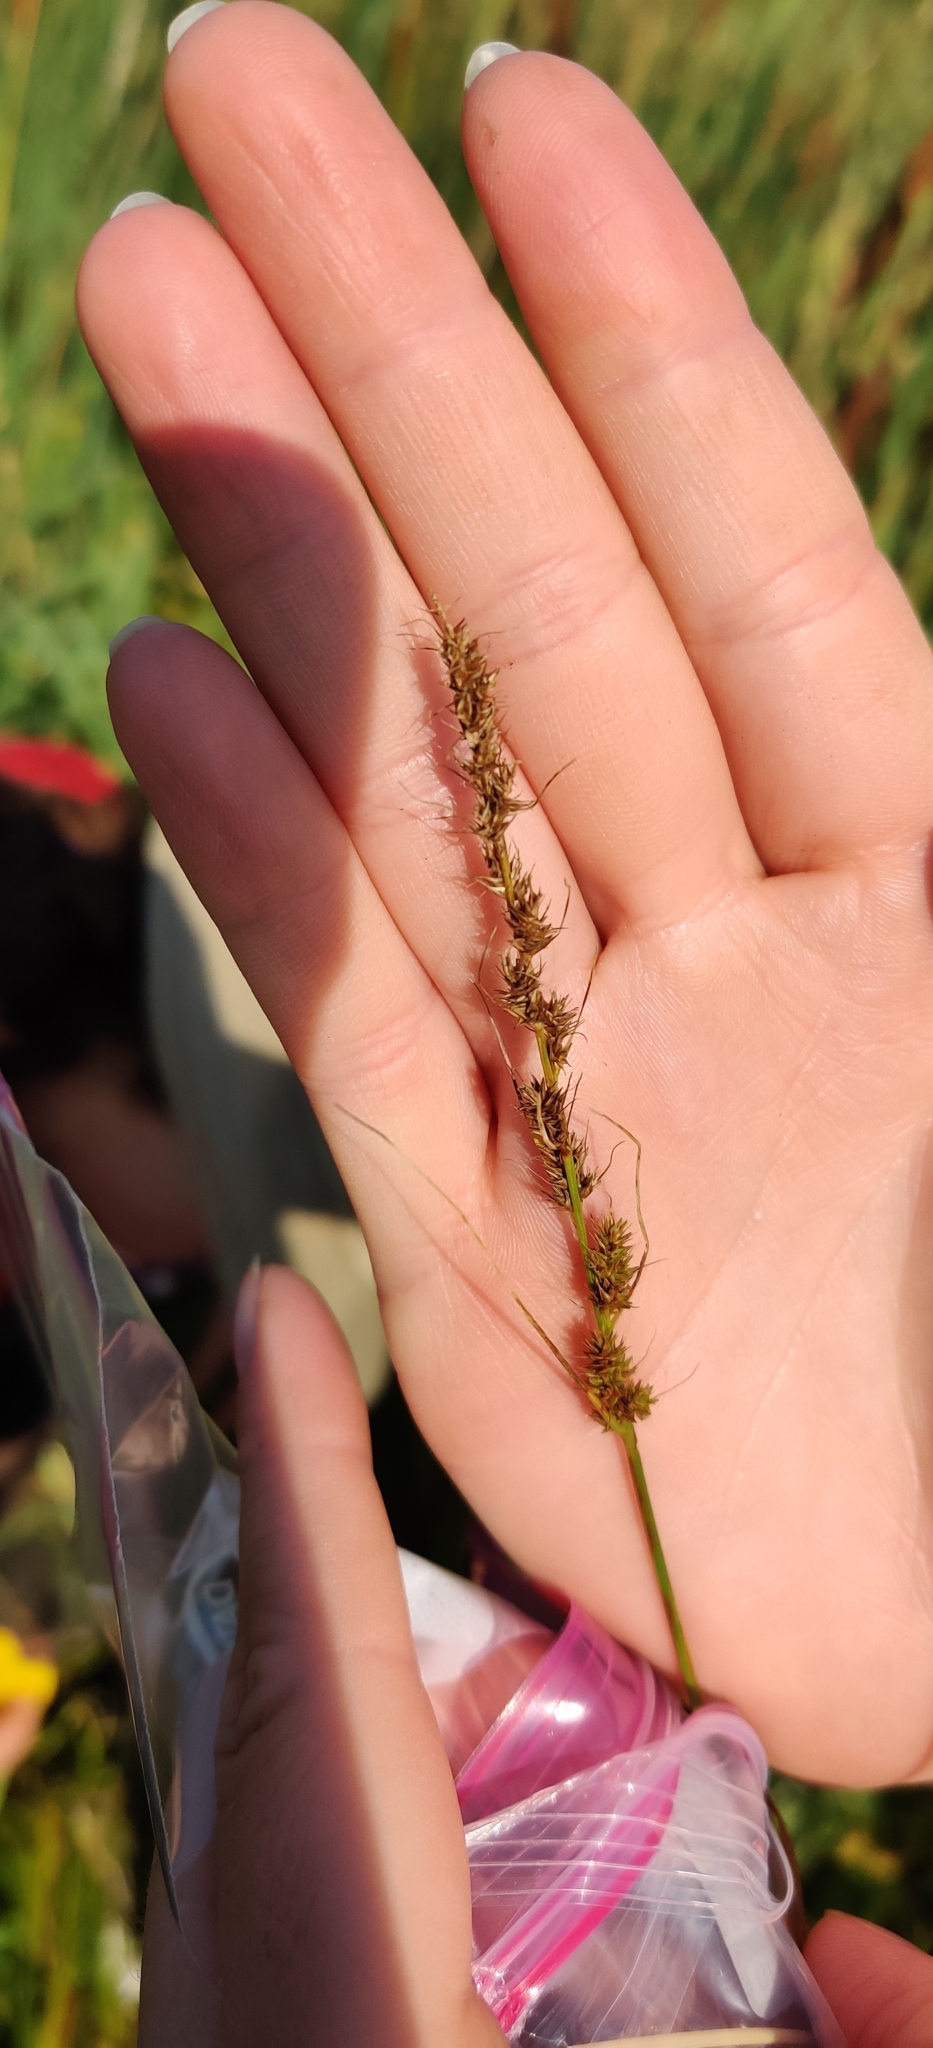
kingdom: Plantae
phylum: Tracheophyta
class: Liliopsida
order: Poales
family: Cyperaceae
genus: Carex
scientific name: Carex vulpinoidea
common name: American fox-sedge
